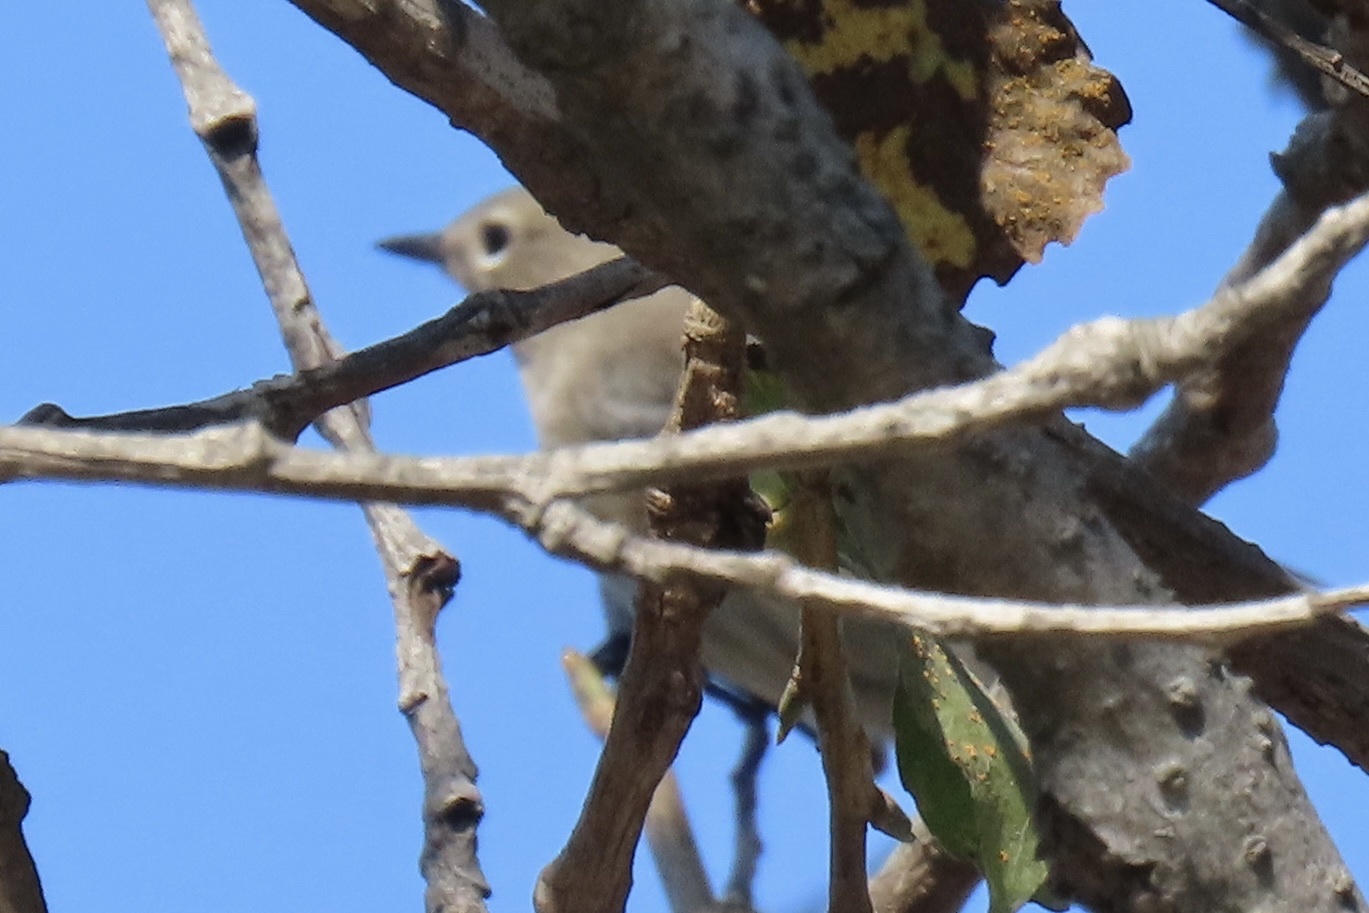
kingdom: Animalia
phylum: Chordata
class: Aves
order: Passeriformes
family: Parulidae
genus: Setophaga
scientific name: Setophaga coronata
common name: Myrtle warbler
